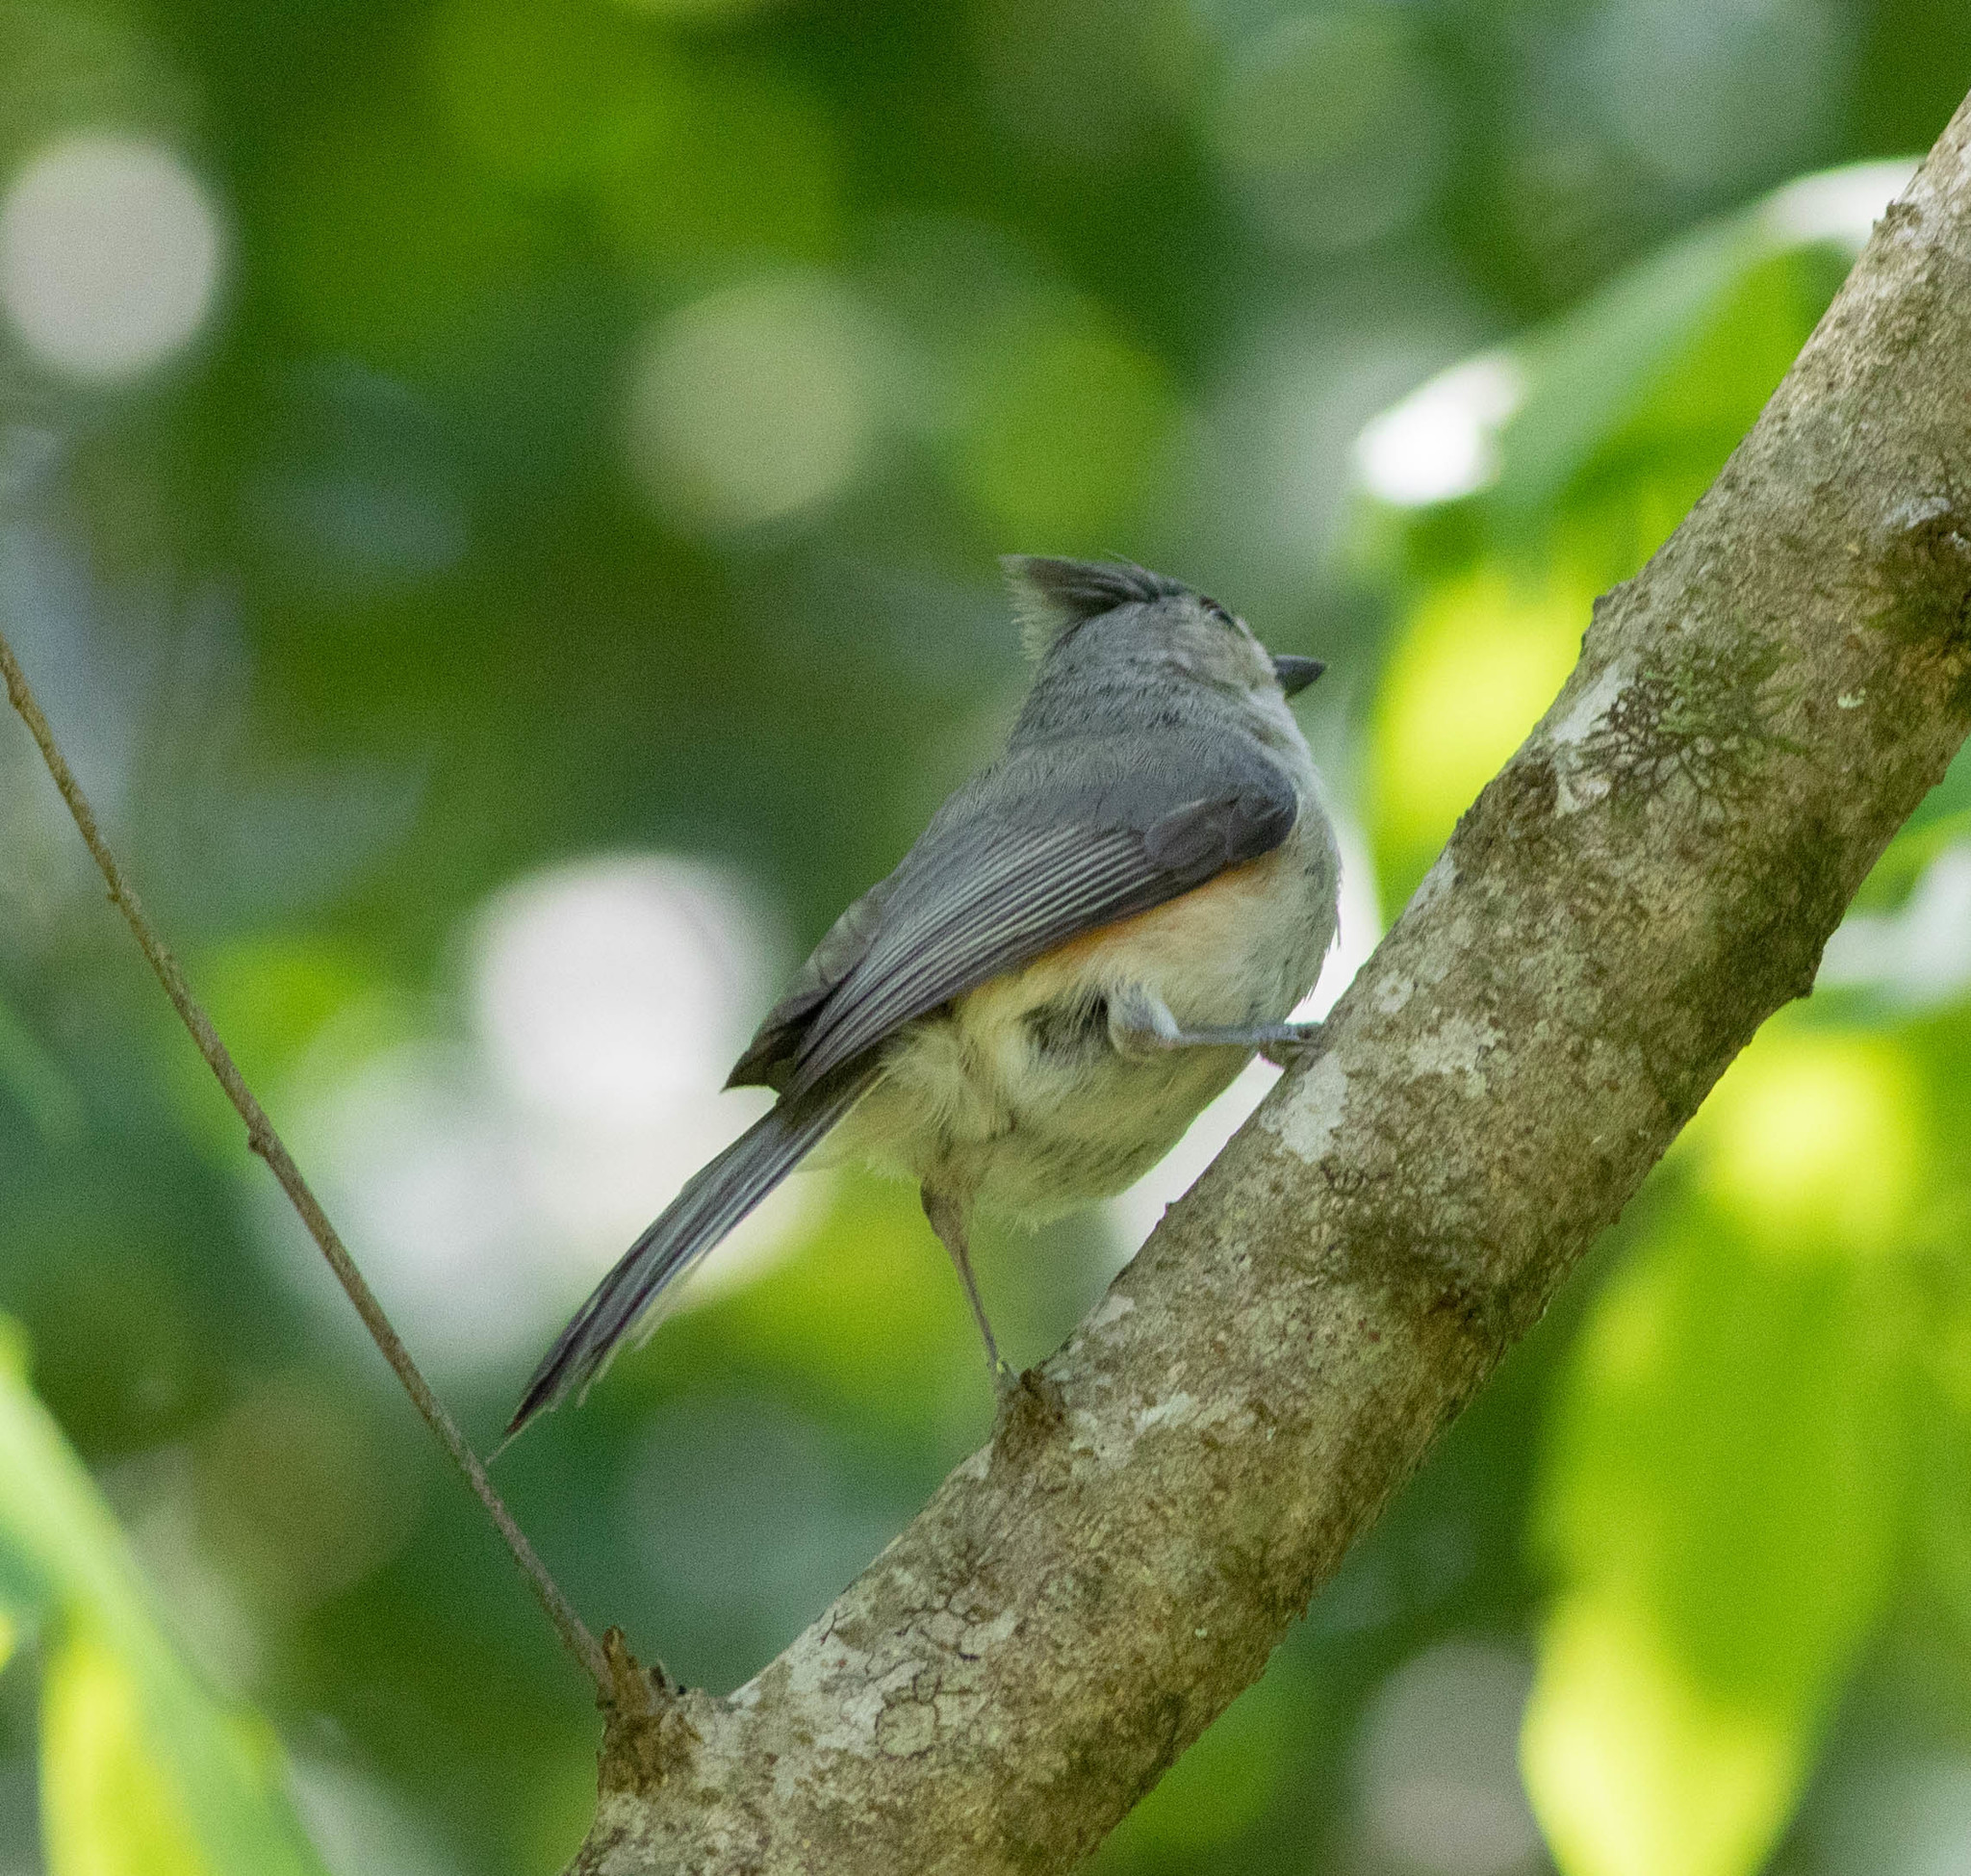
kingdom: Animalia
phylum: Chordata
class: Aves
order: Passeriformes
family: Paridae
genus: Baeolophus
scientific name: Baeolophus bicolor
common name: Tufted titmouse
